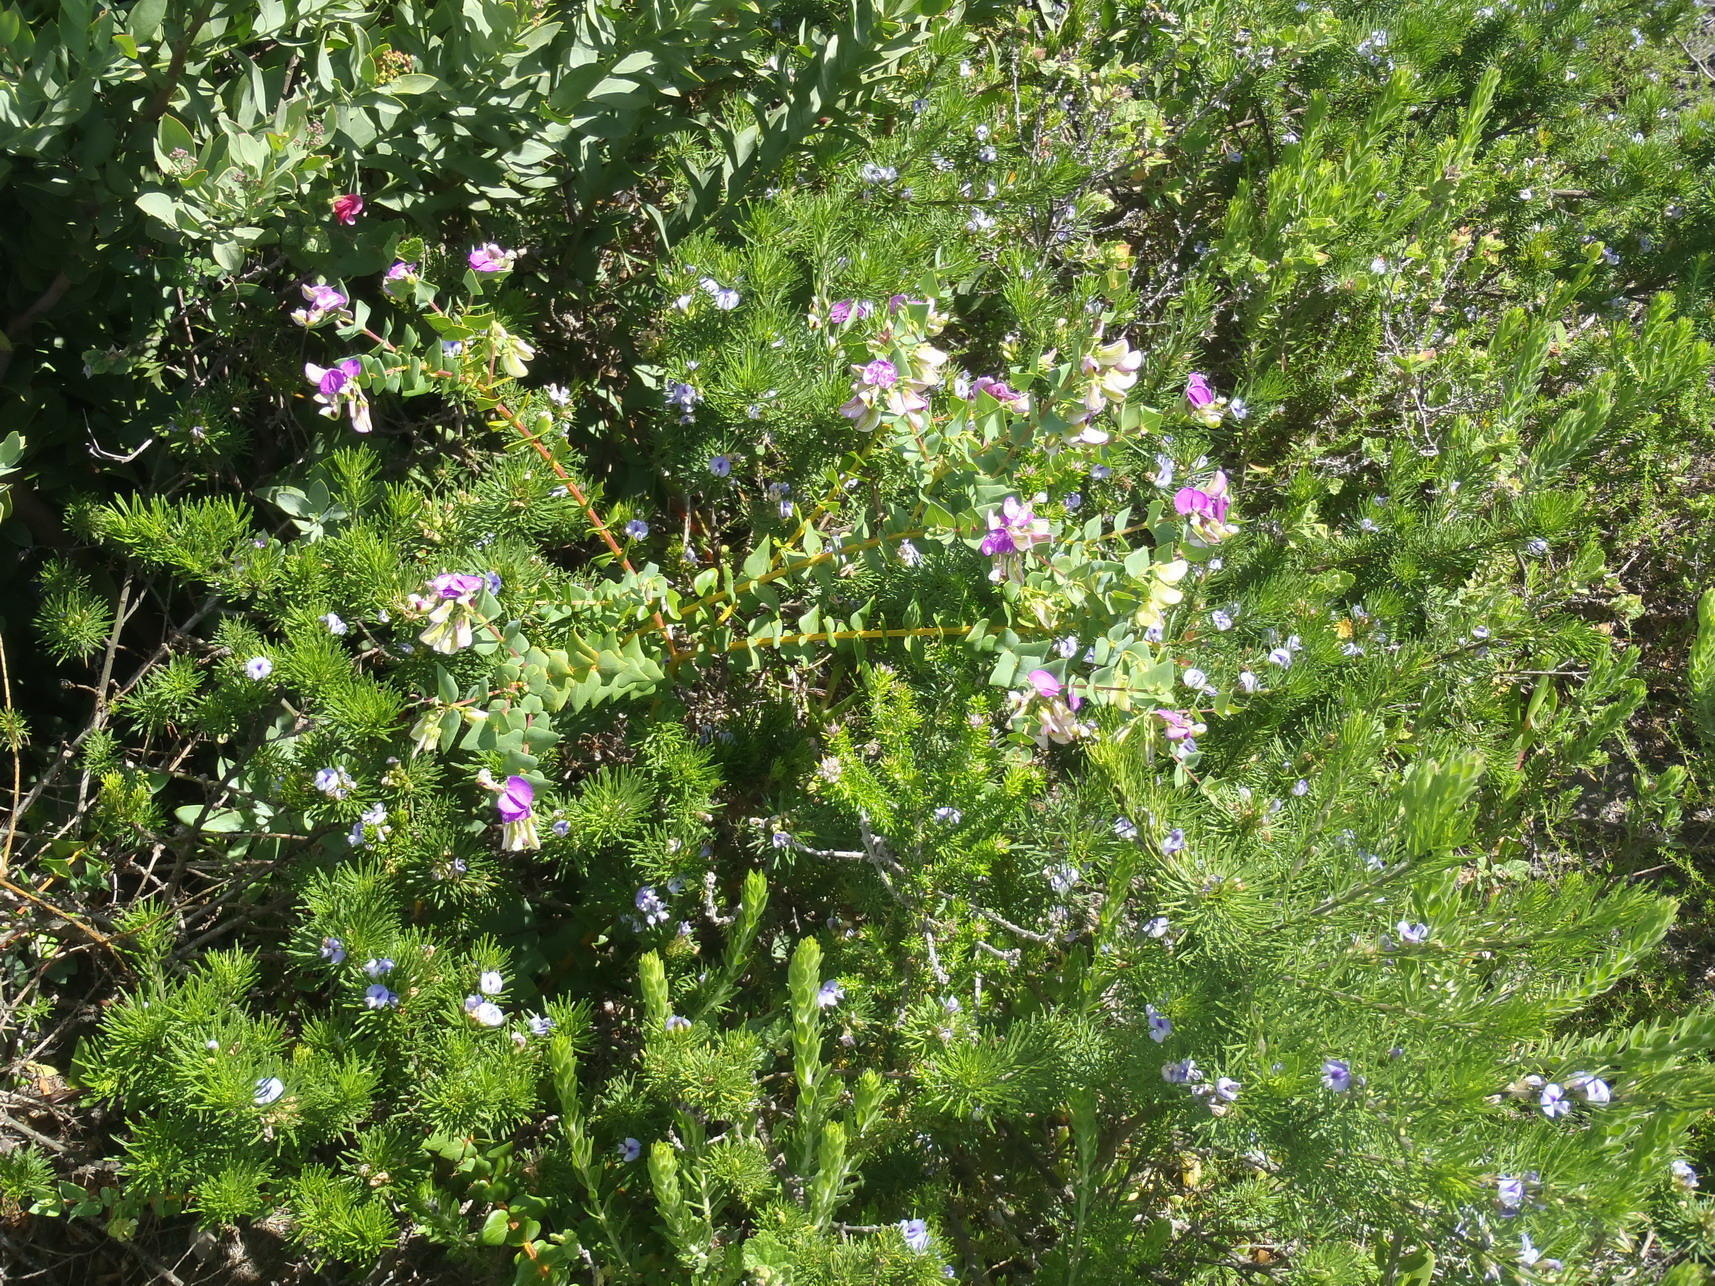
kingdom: Plantae
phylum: Tracheophyta
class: Magnoliopsida
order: Fabales
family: Polygalaceae
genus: Polygala
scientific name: Polygala fruticosa
